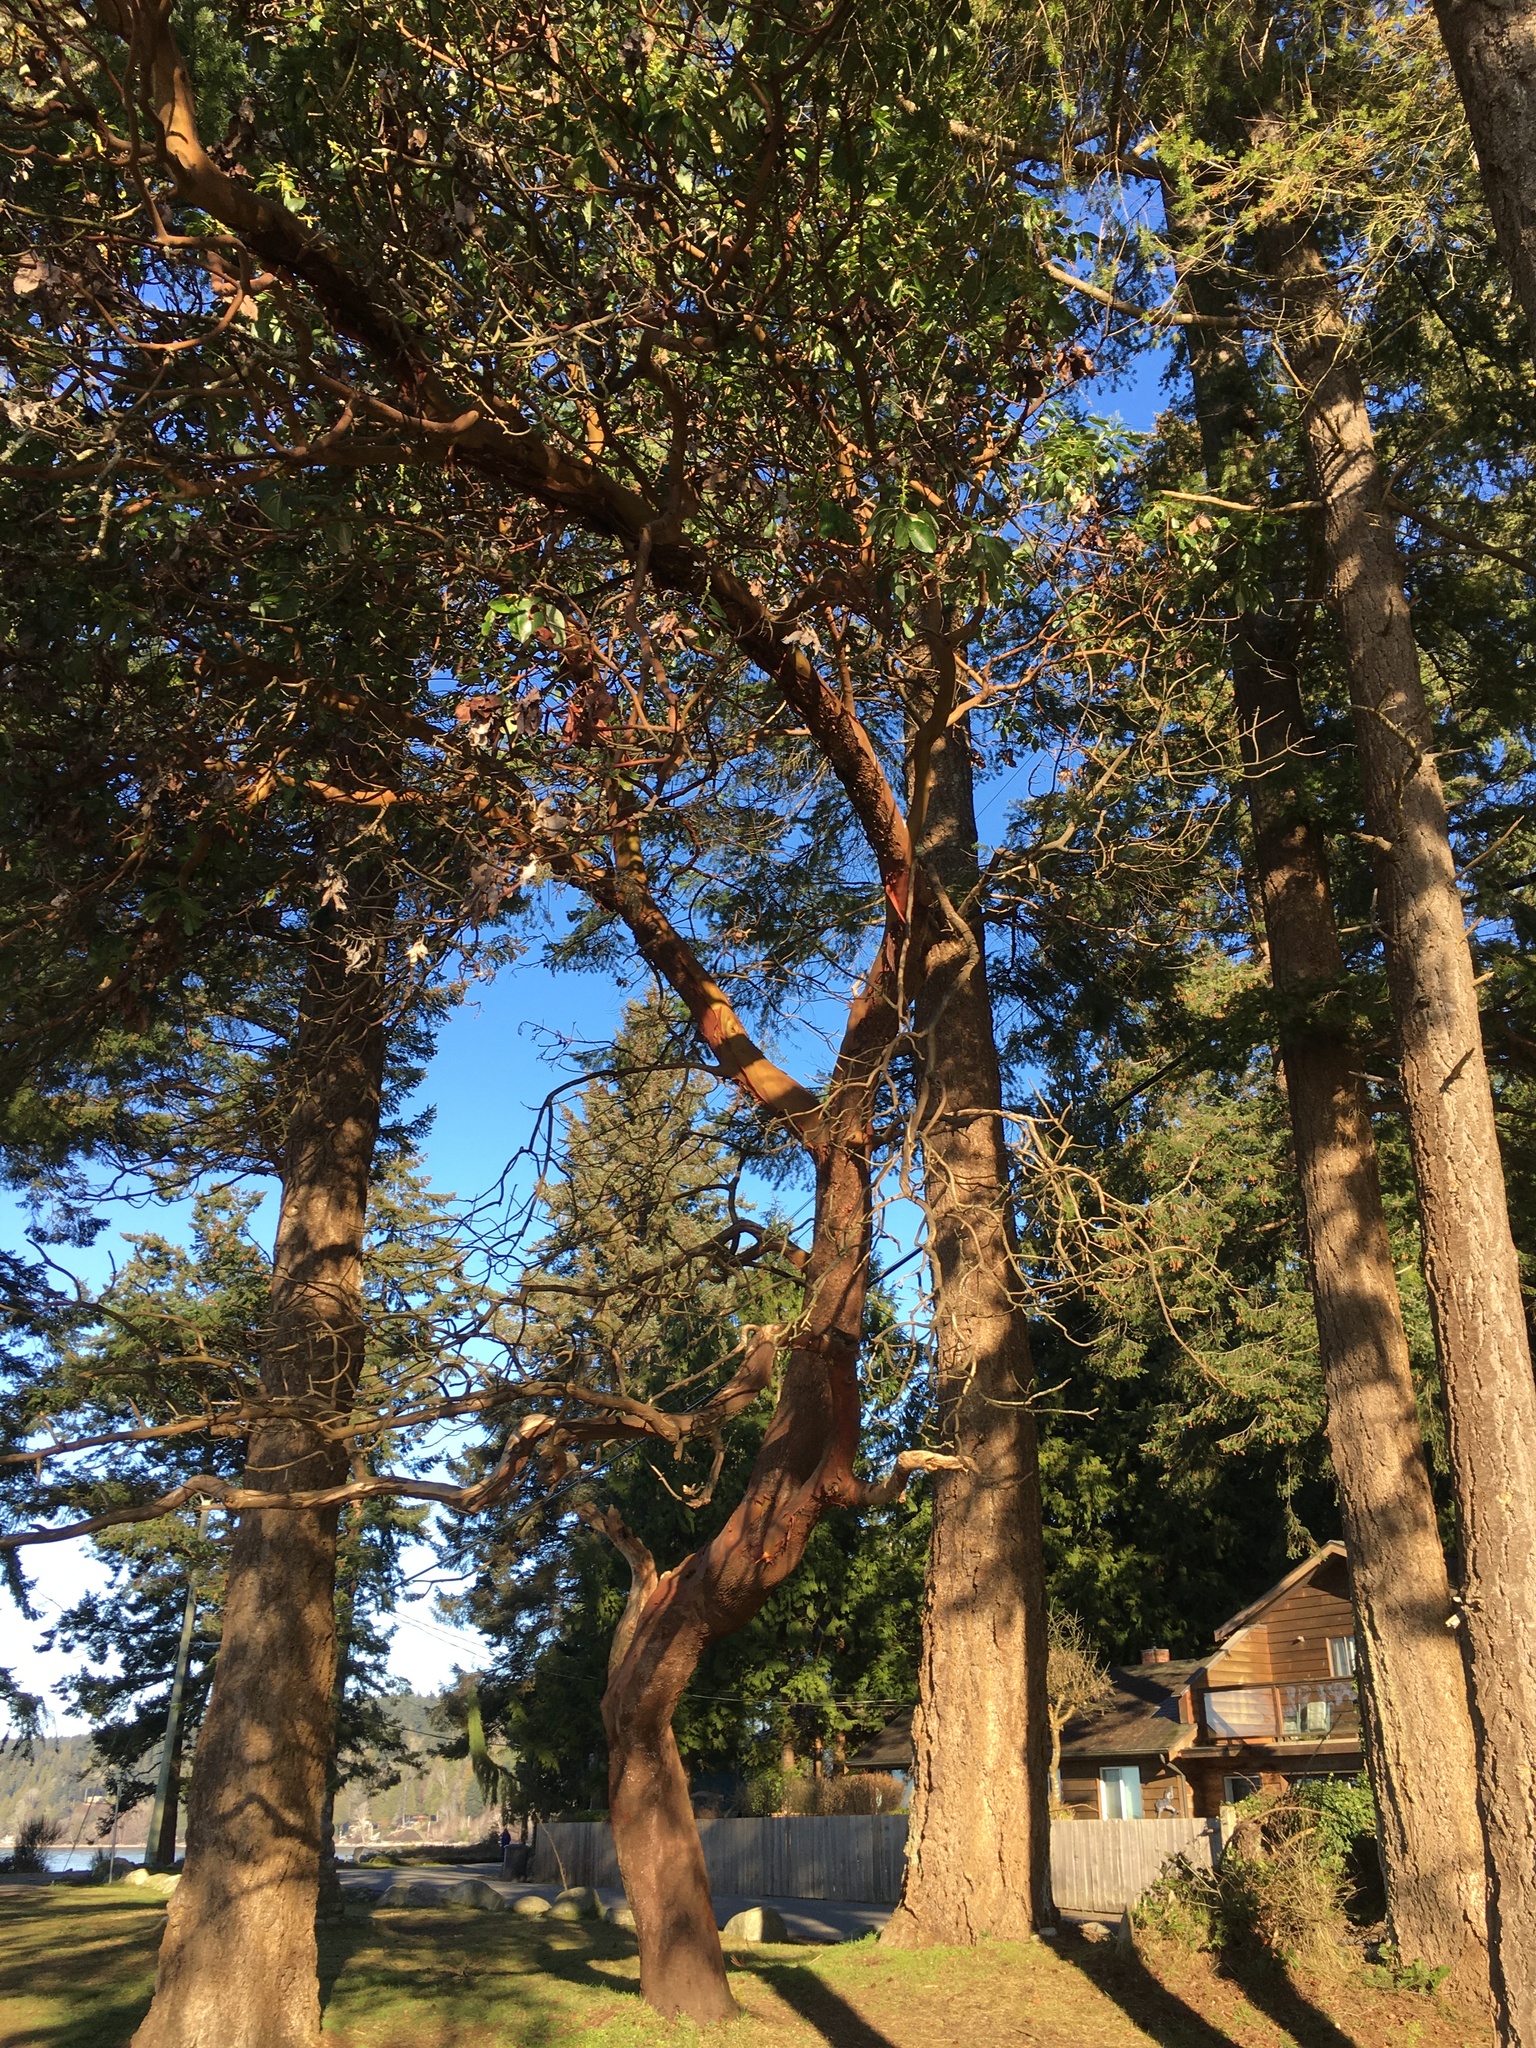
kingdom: Plantae
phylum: Tracheophyta
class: Magnoliopsida
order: Ericales
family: Ericaceae
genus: Arbutus
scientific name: Arbutus menziesii
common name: Pacific madrone
